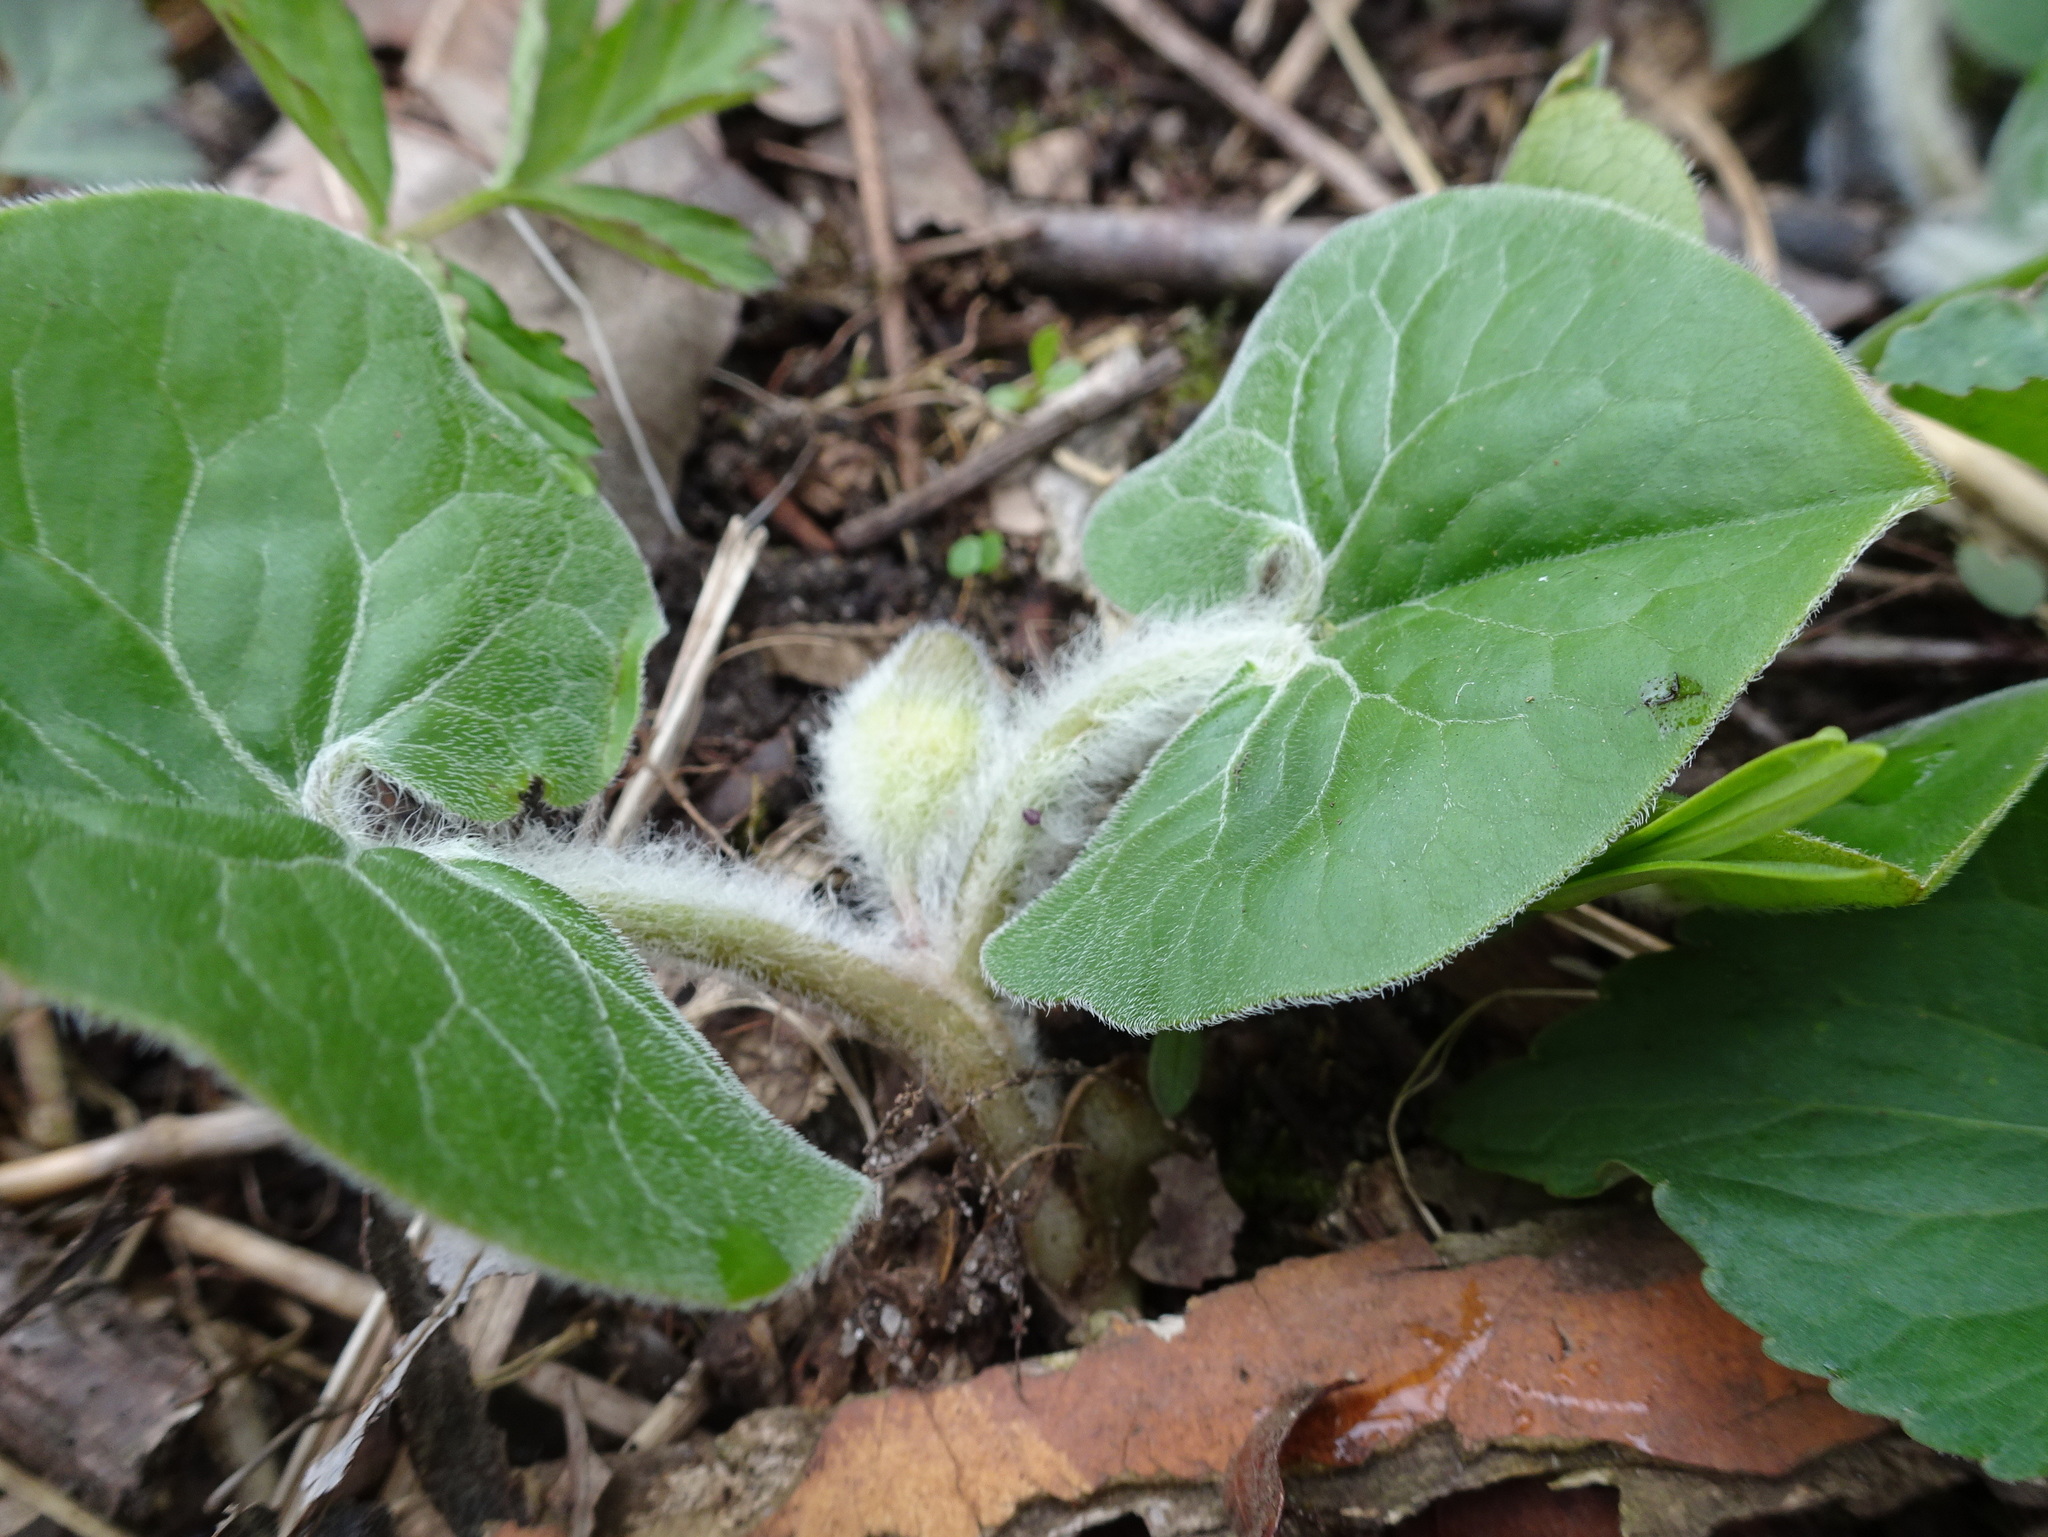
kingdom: Plantae
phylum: Tracheophyta
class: Magnoliopsida
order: Piperales
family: Aristolochiaceae
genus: Asarum
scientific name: Asarum canadense
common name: Wild ginger
